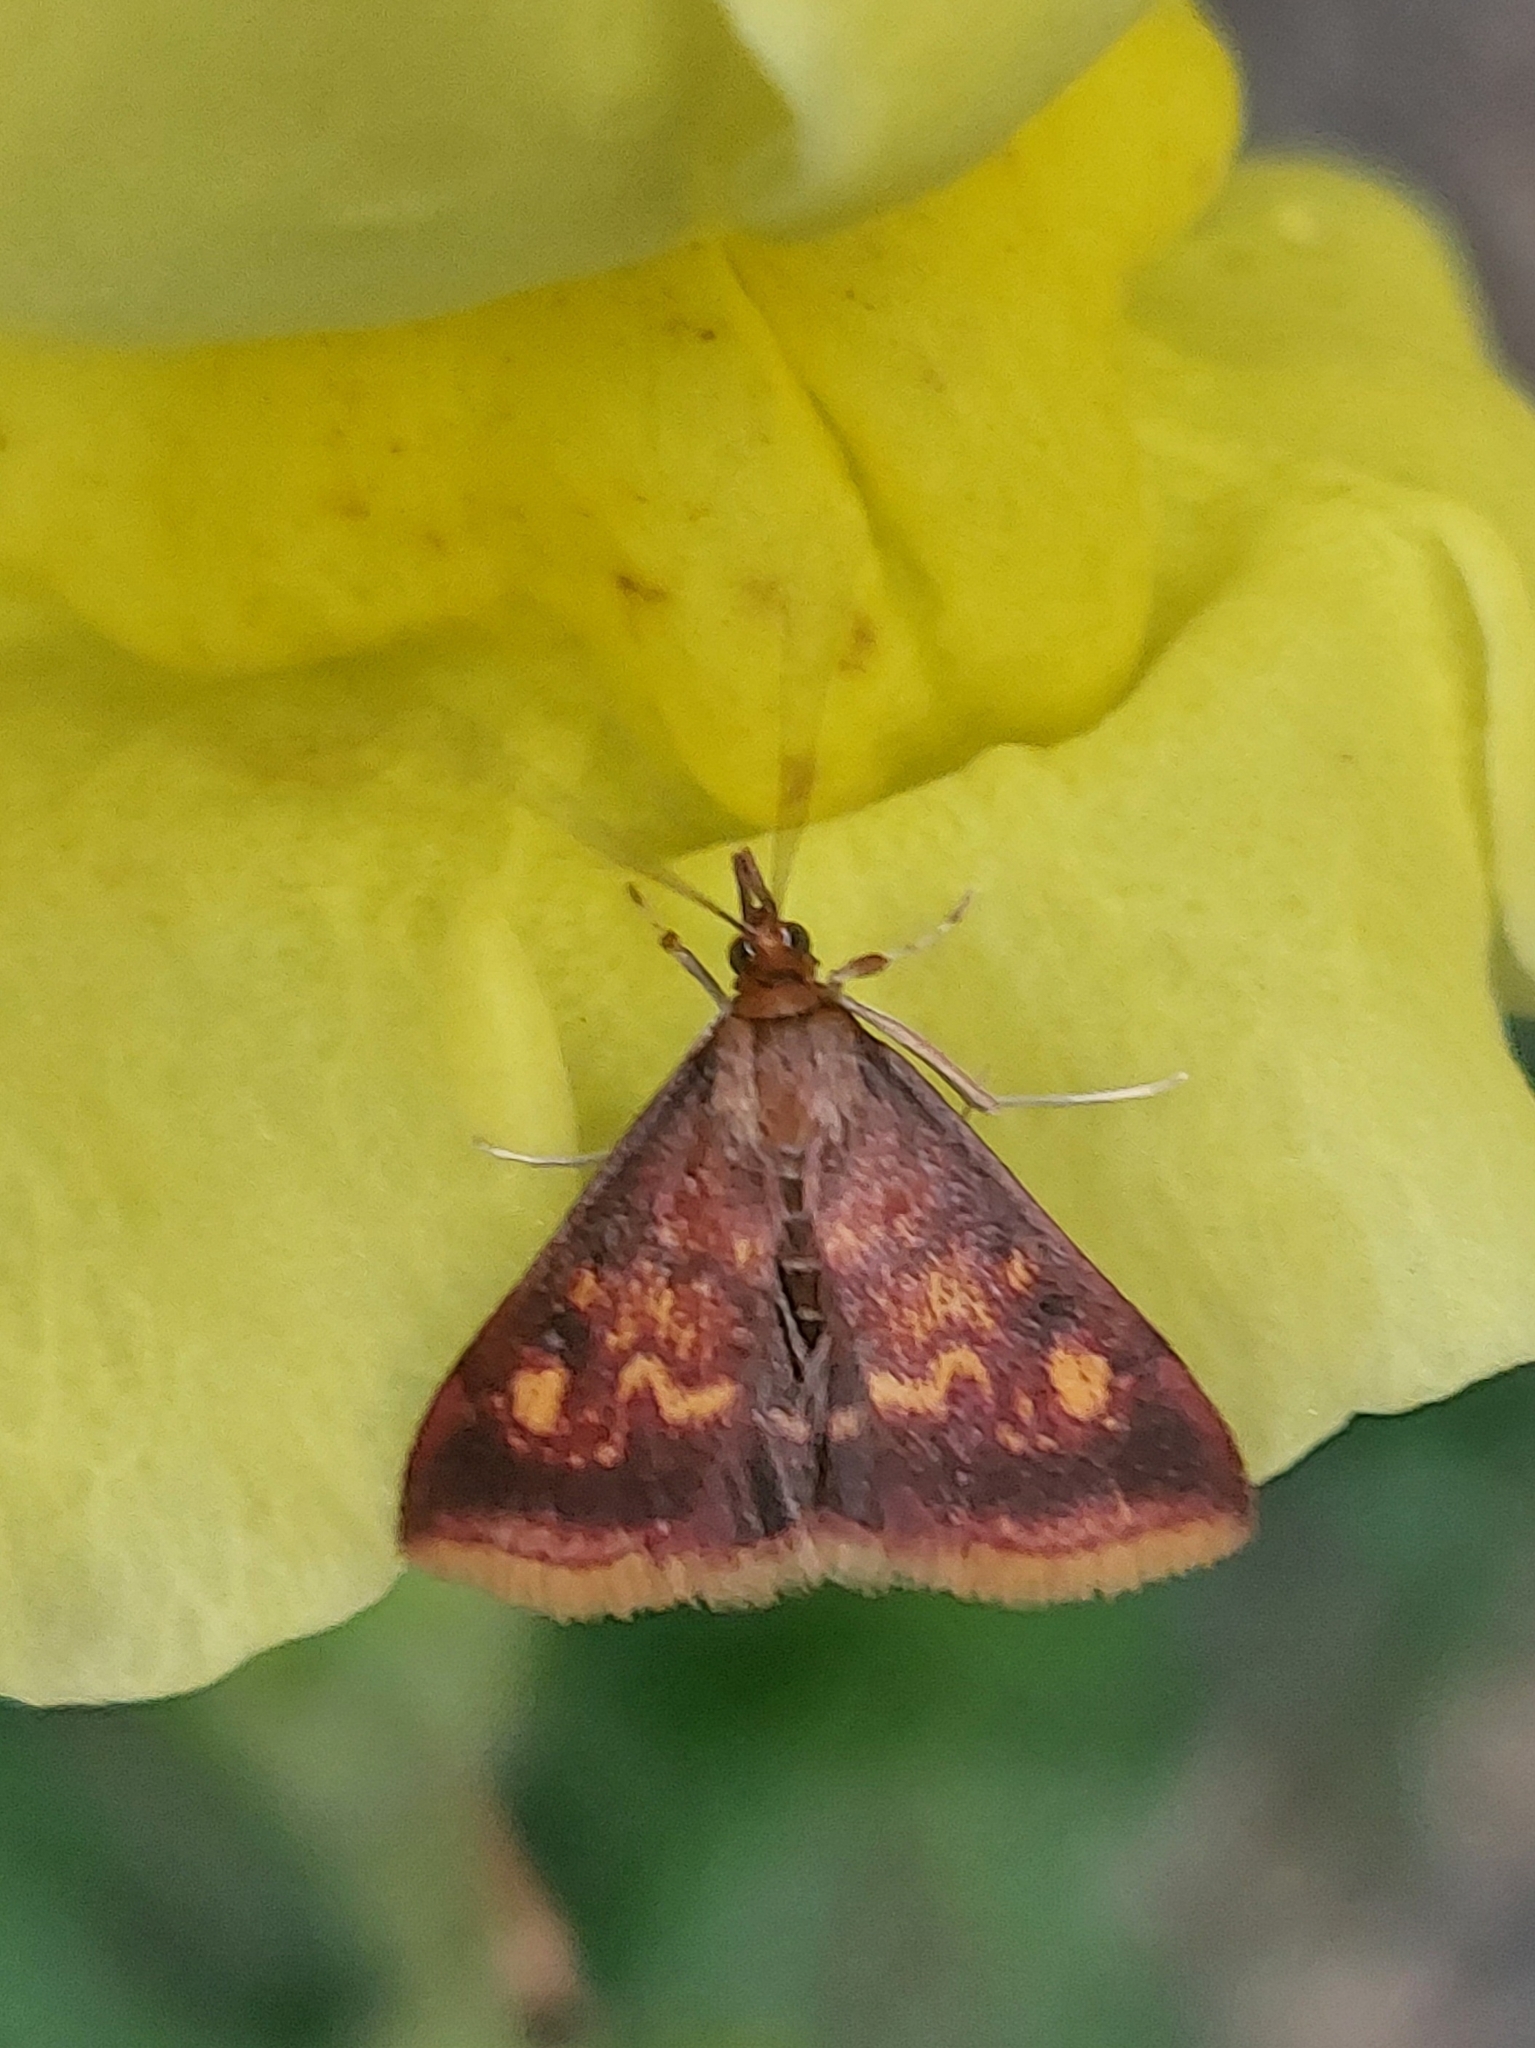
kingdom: Animalia
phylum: Arthropoda
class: Insecta
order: Lepidoptera
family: Crambidae
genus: Pyrausta
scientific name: Pyrausta acrionalis
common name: Mint-loving pyrausta moth
